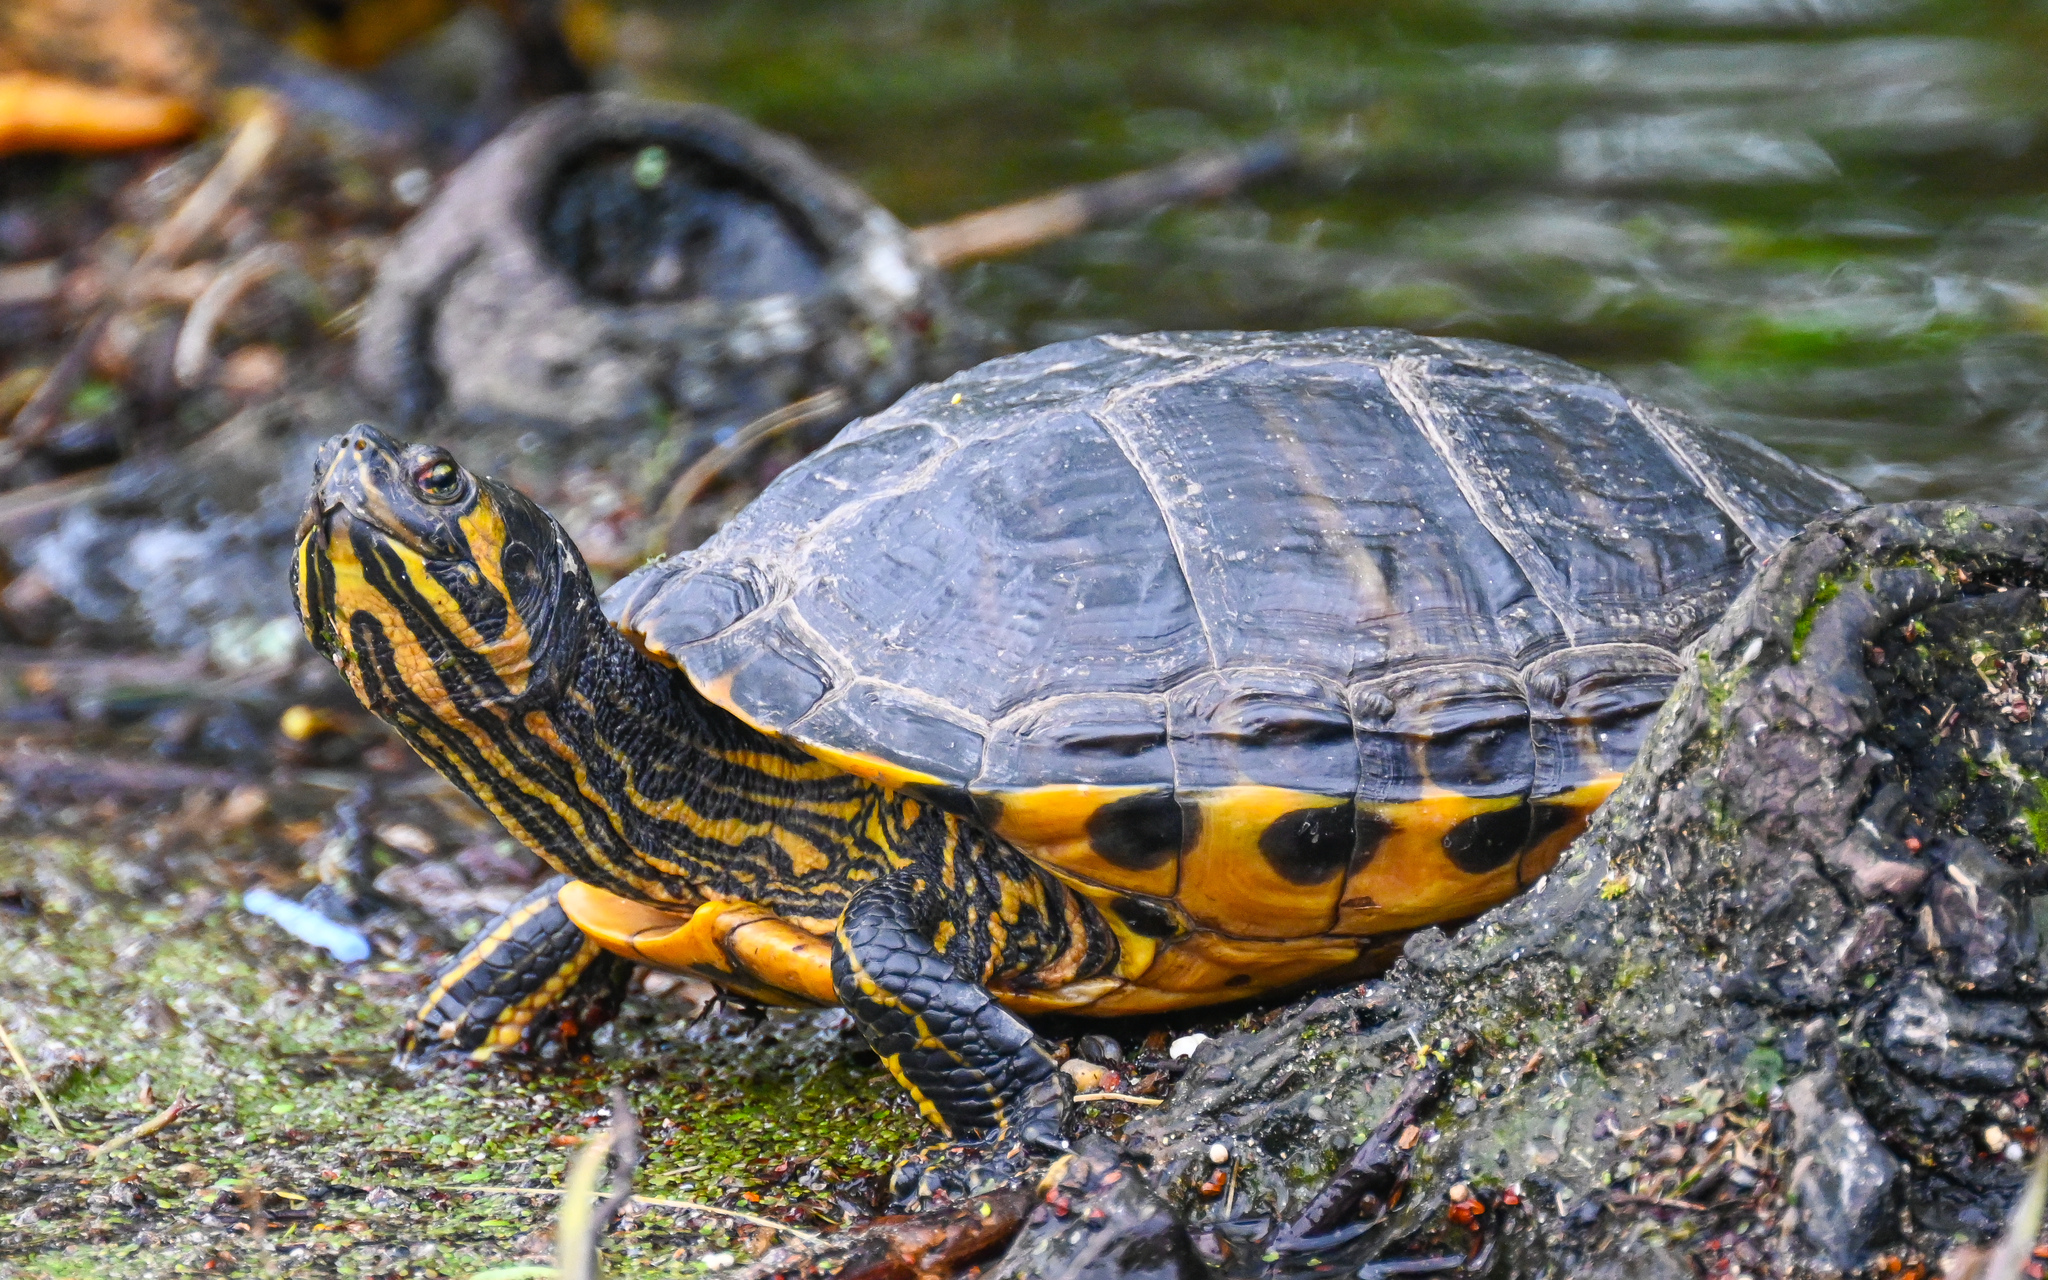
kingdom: Animalia
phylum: Chordata
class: Testudines
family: Emydidae
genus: Trachemys
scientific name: Trachemys scripta
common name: Slider
